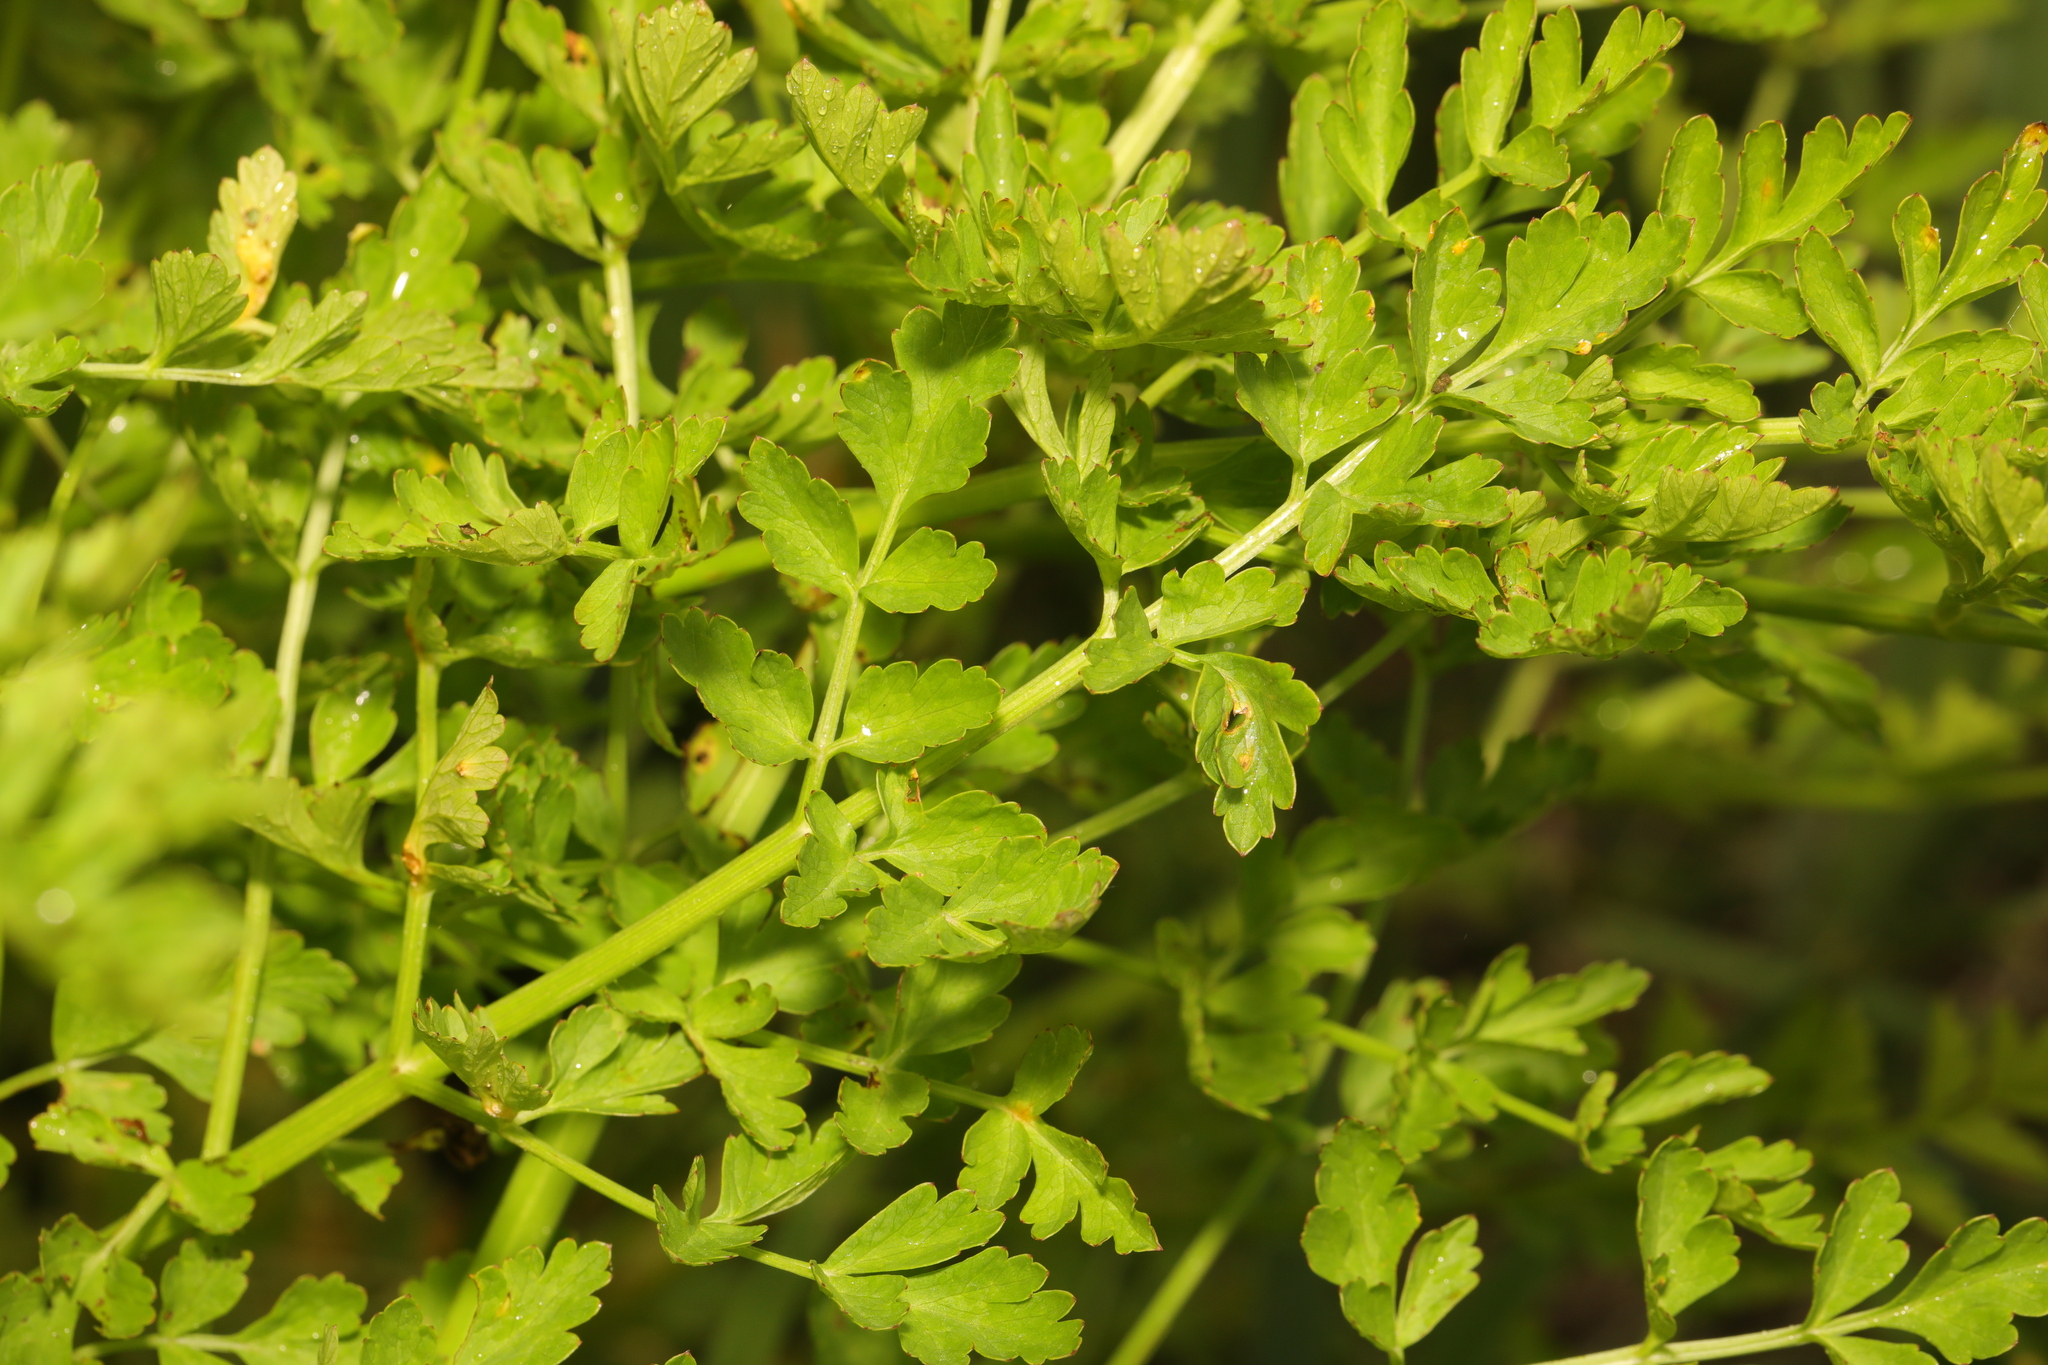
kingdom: Plantae
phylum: Tracheophyta
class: Magnoliopsida
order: Apiales
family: Apiaceae
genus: Oenanthe
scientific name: Oenanthe crocata
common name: Hemlock water-dropwort
